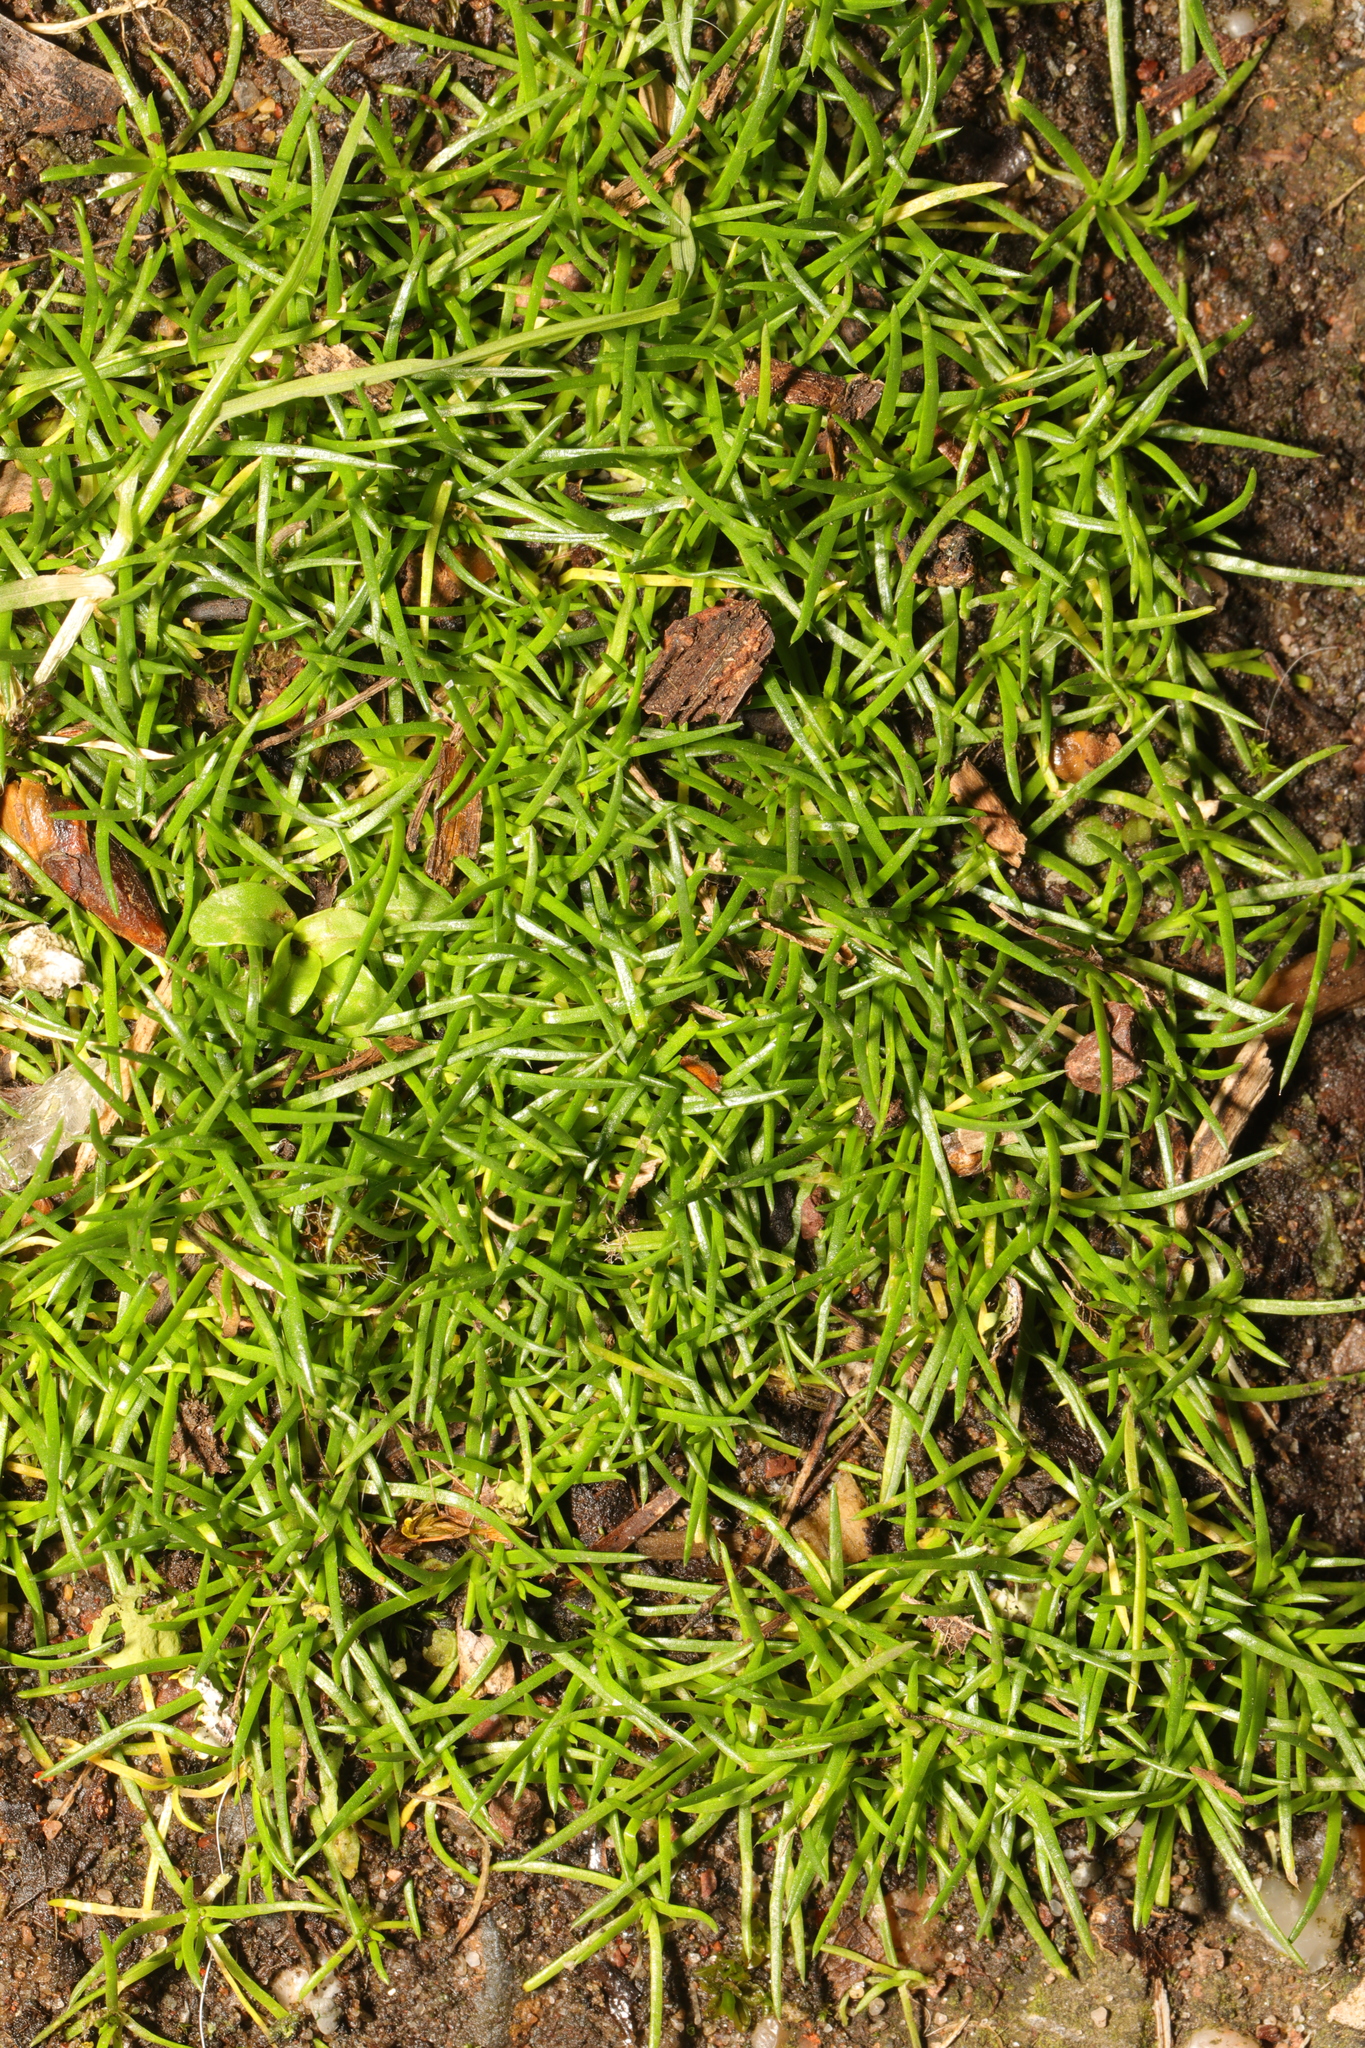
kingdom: Plantae
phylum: Tracheophyta
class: Magnoliopsida
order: Caryophyllales
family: Caryophyllaceae
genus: Sagina
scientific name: Sagina procumbens
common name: Procumbent pearlwort
